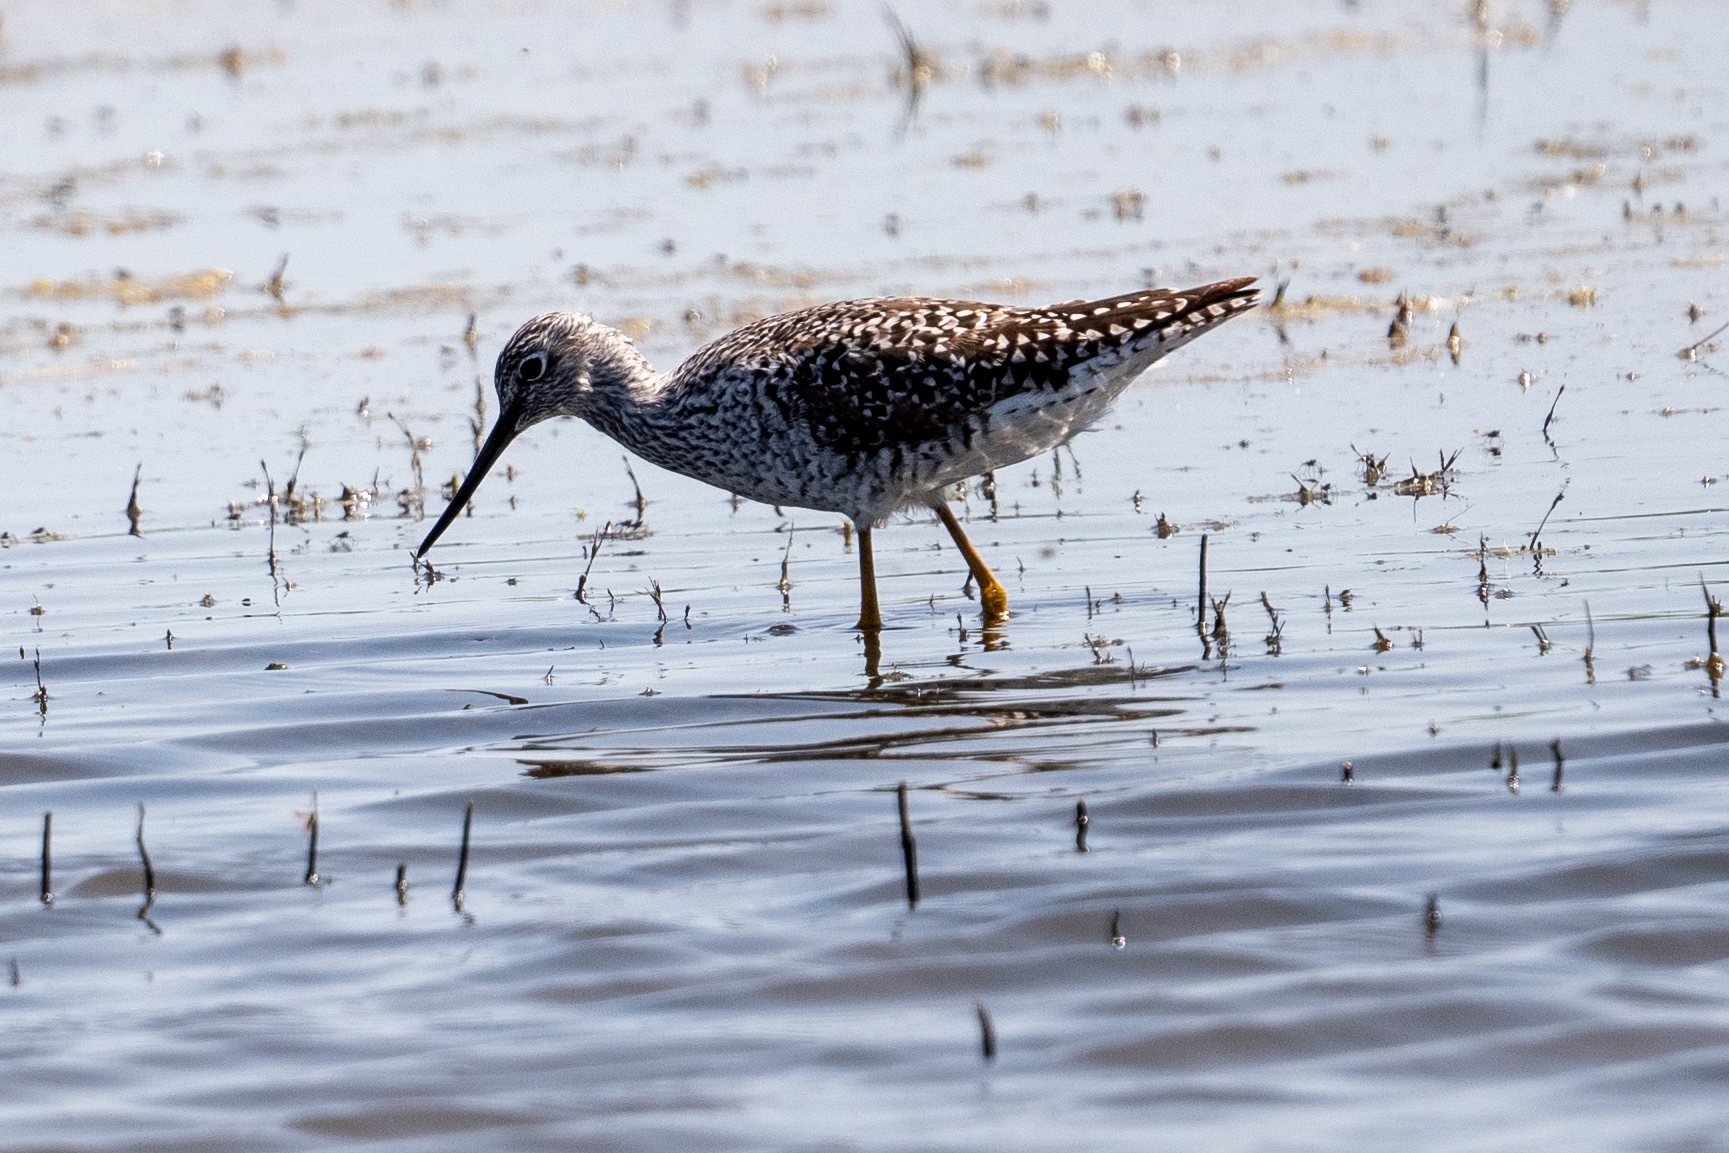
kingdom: Animalia
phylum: Chordata
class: Aves
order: Charadriiformes
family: Scolopacidae
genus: Tringa
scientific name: Tringa melanoleuca
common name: Greater yellowlegs
